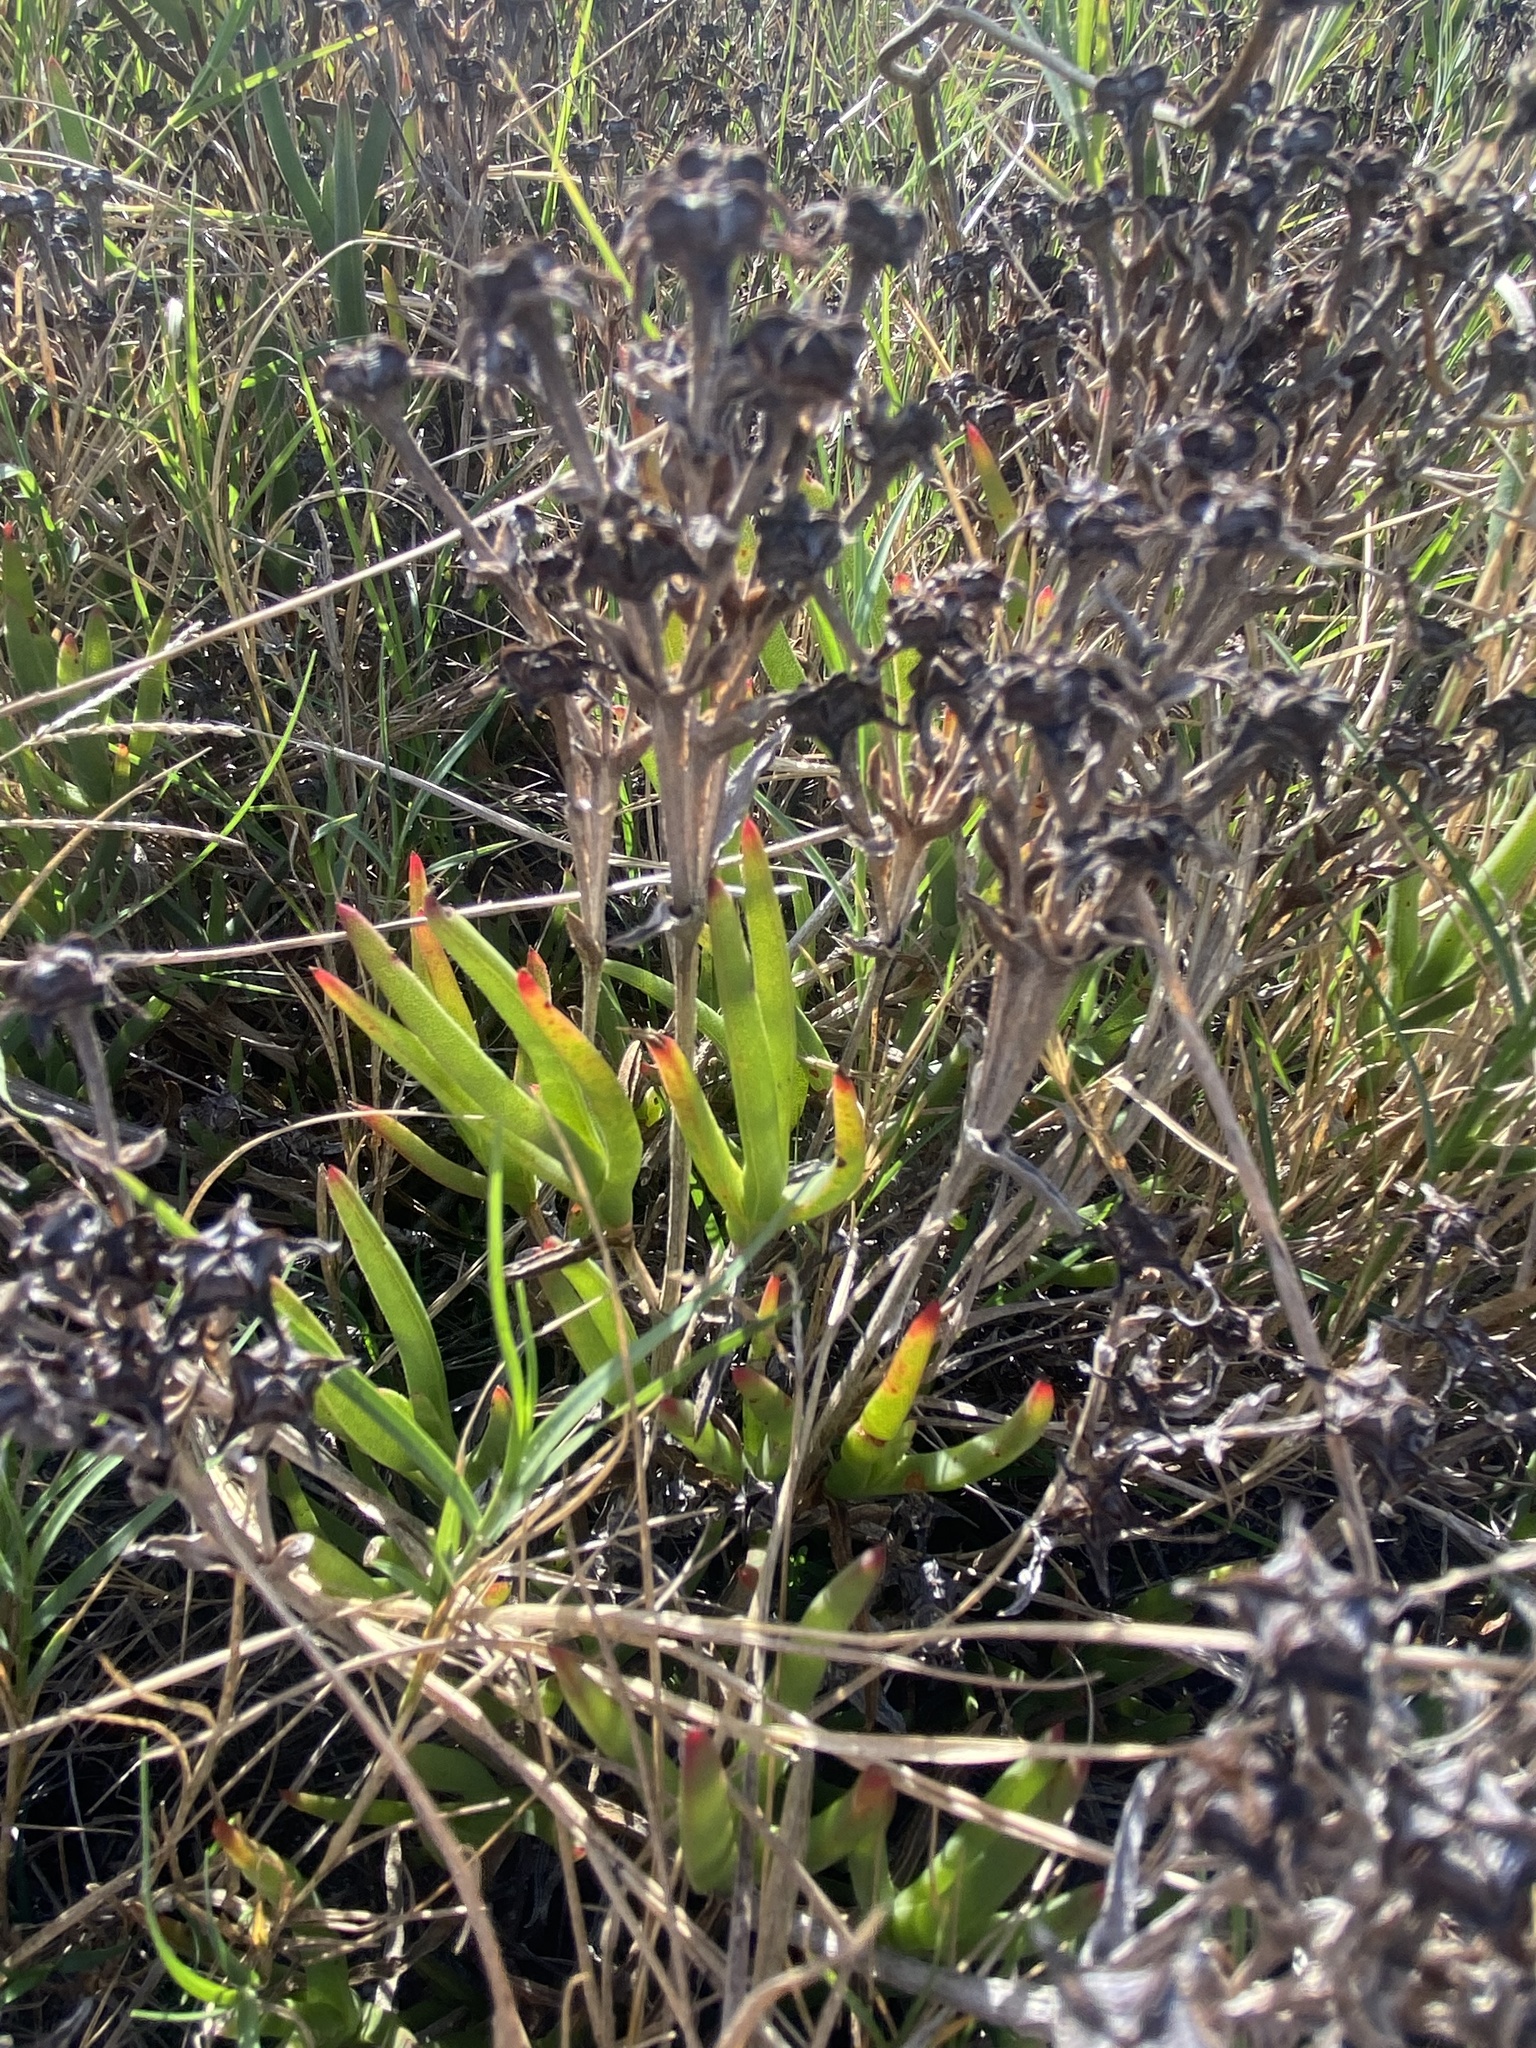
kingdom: Plantae
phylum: Tracheophyta
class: Magnoliopsida
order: Caryophyllales
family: Aizoaceae
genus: Ruschia
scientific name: Ruschia sarmentosa
